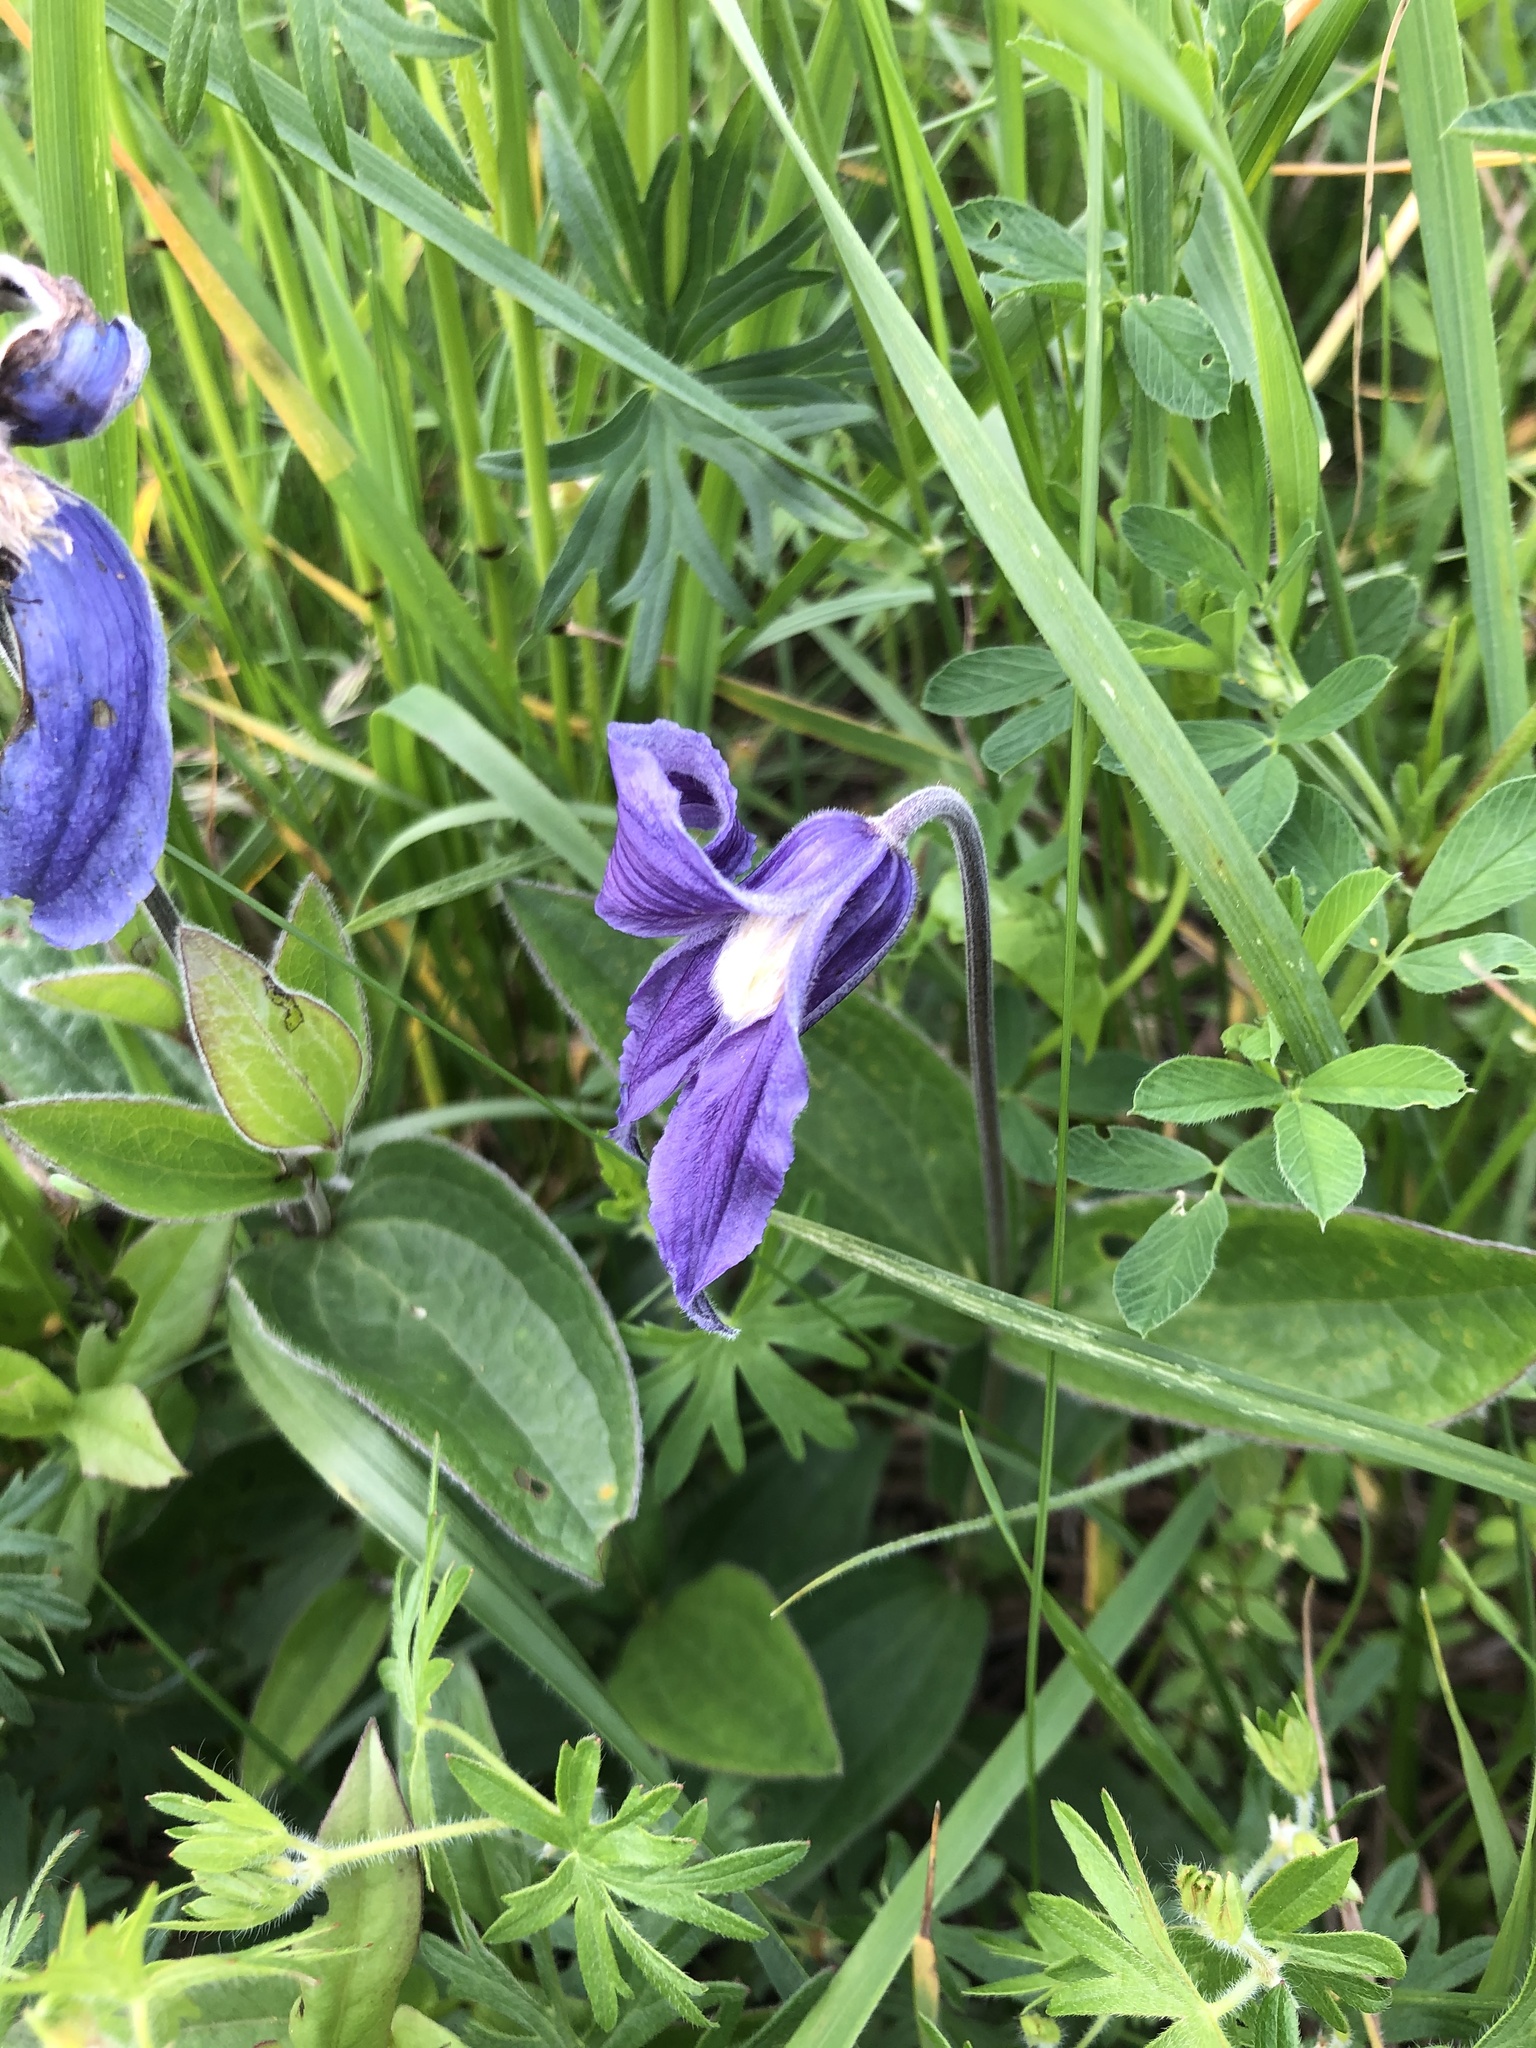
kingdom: Plantae
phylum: Tracheophyta
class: Magnoliopsida
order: Ranunculales
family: Ranunculaceae
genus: Clematis
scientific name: Clematis integrifolia
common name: Solitary clematis
